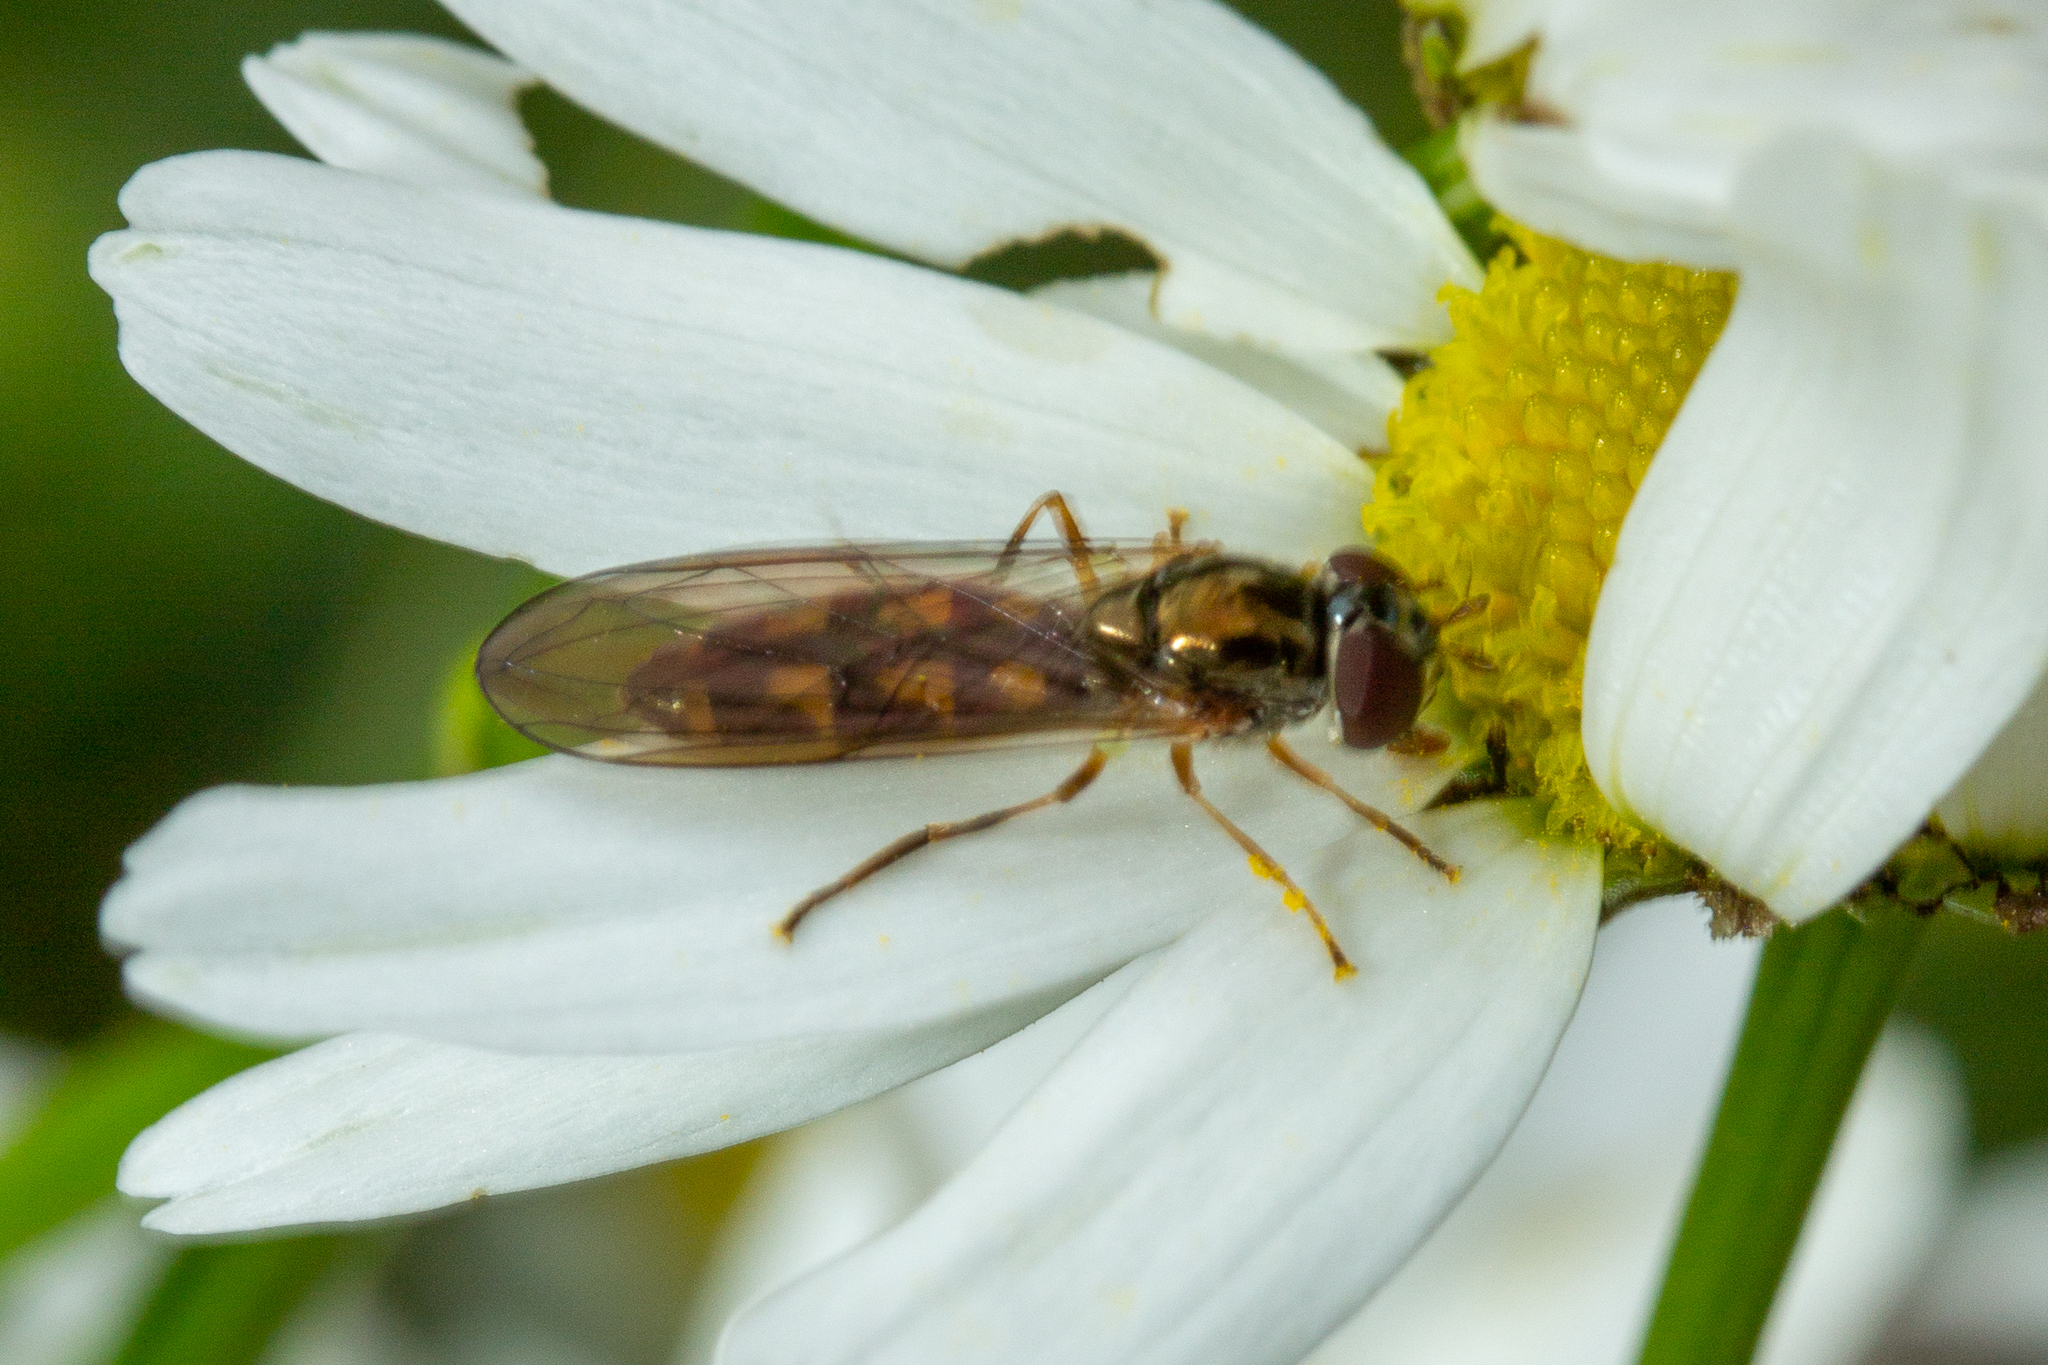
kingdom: Animalia
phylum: Arthropoda
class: Insecta
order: Diptera
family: Syrphidae
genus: Melanostoma
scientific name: Melanostoma
